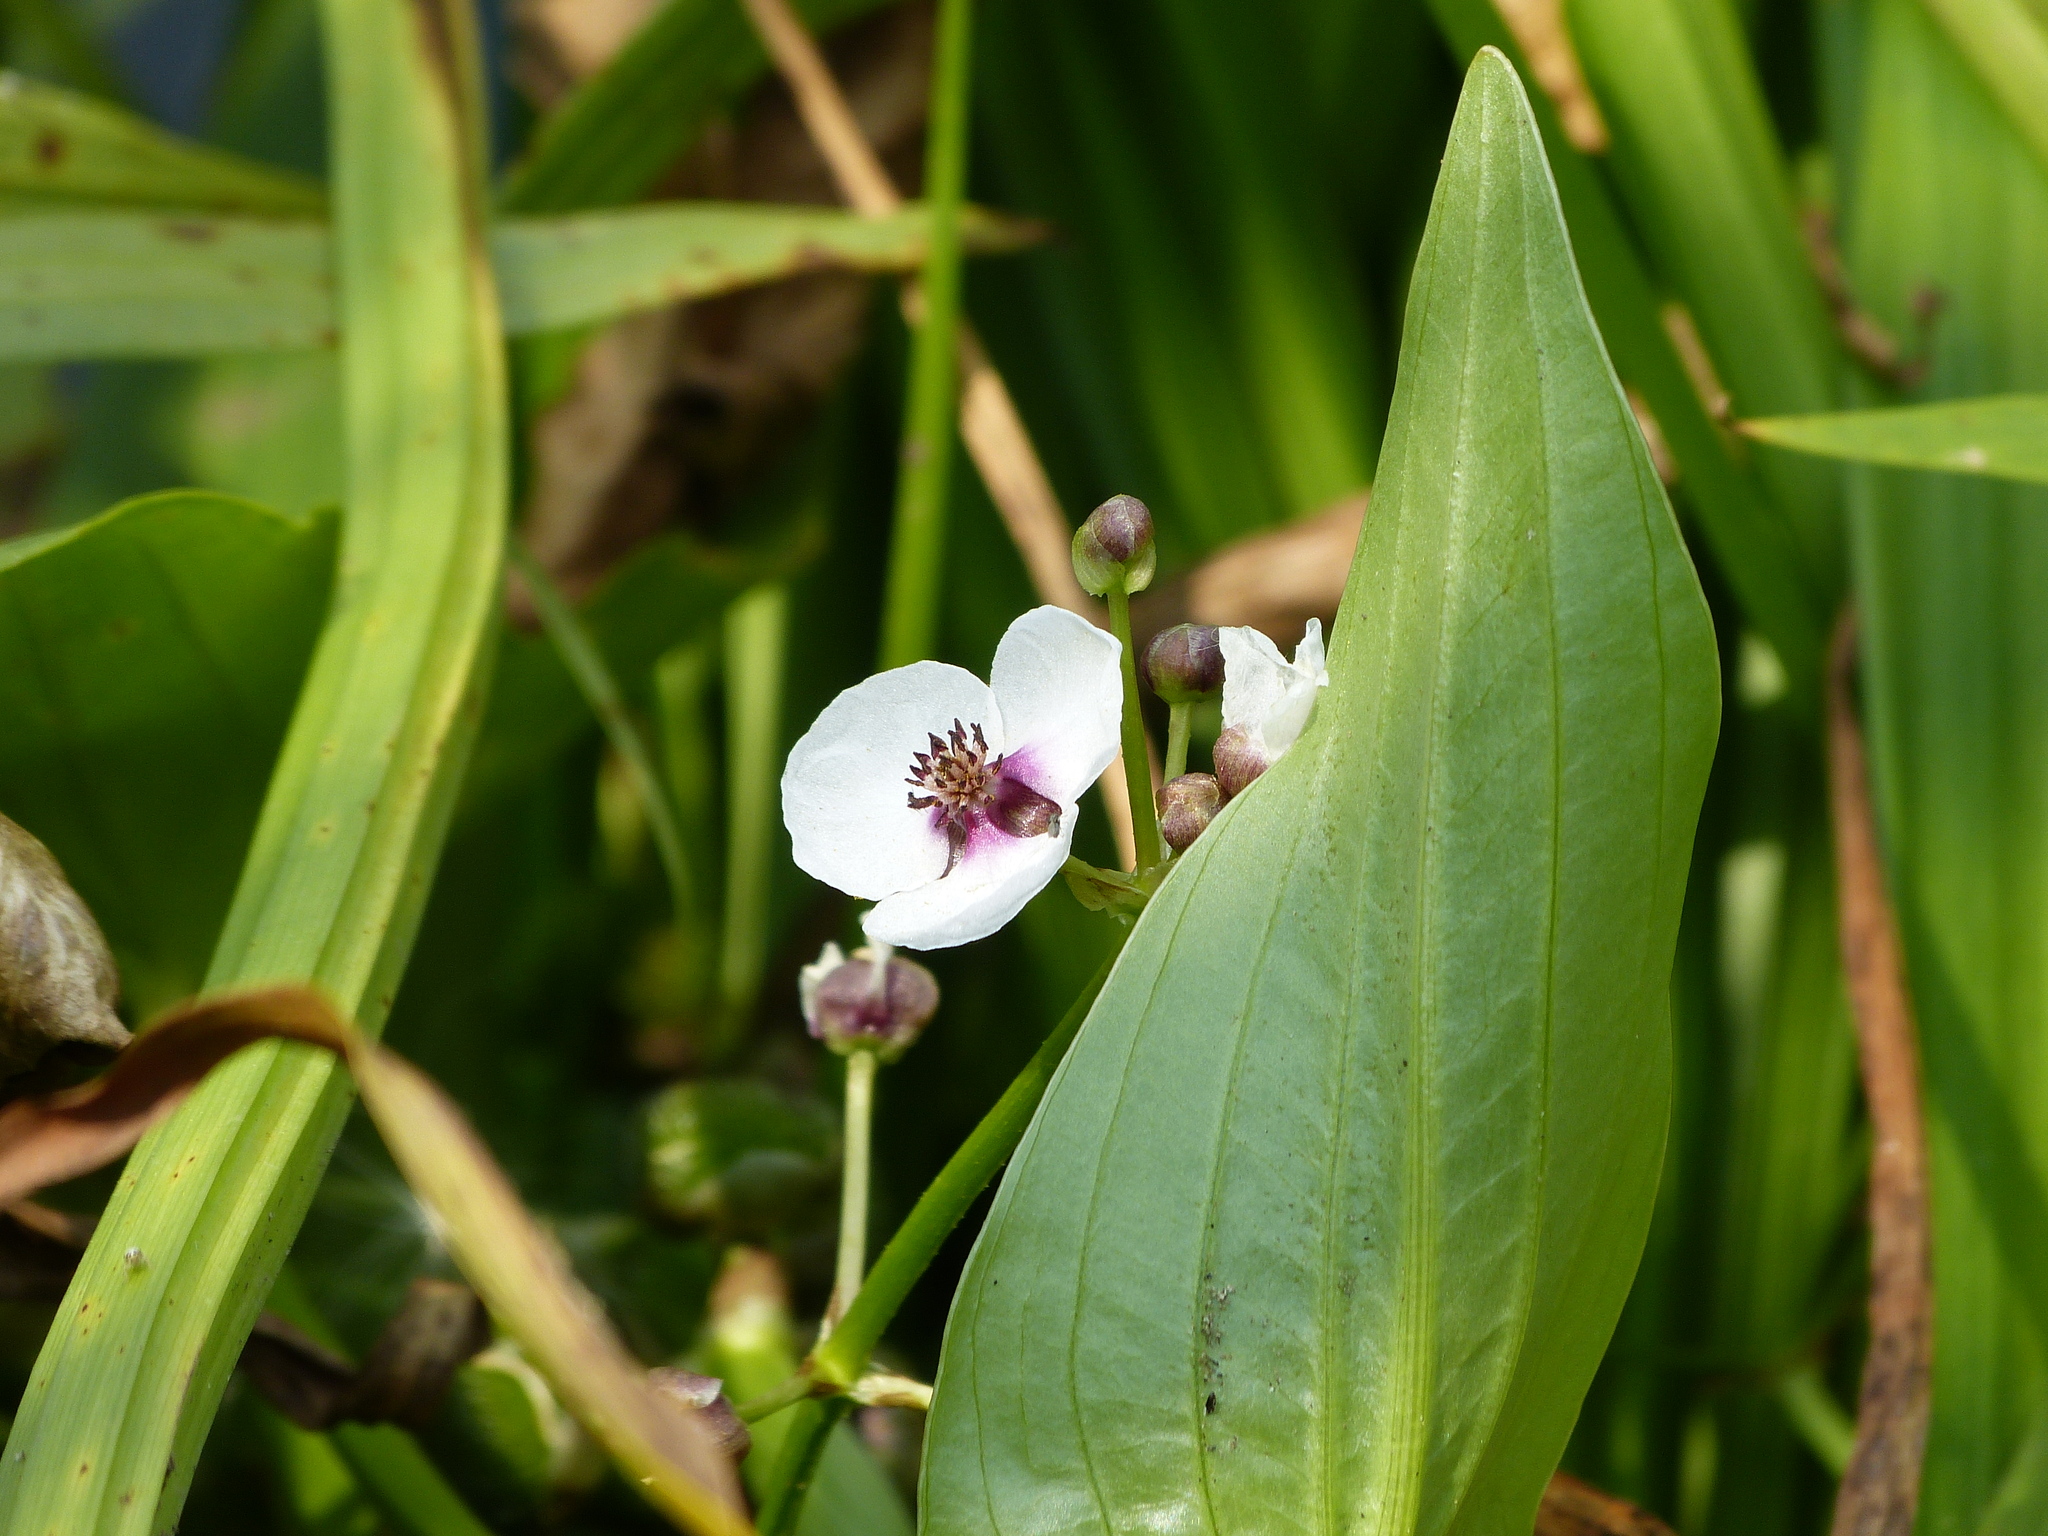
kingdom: Plantae
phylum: Tracheophyta
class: Liliopsida
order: Alismatales
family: Alismataceae
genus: Sagittaria
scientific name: Sagittaria sagittifolia
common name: Arrowhead
